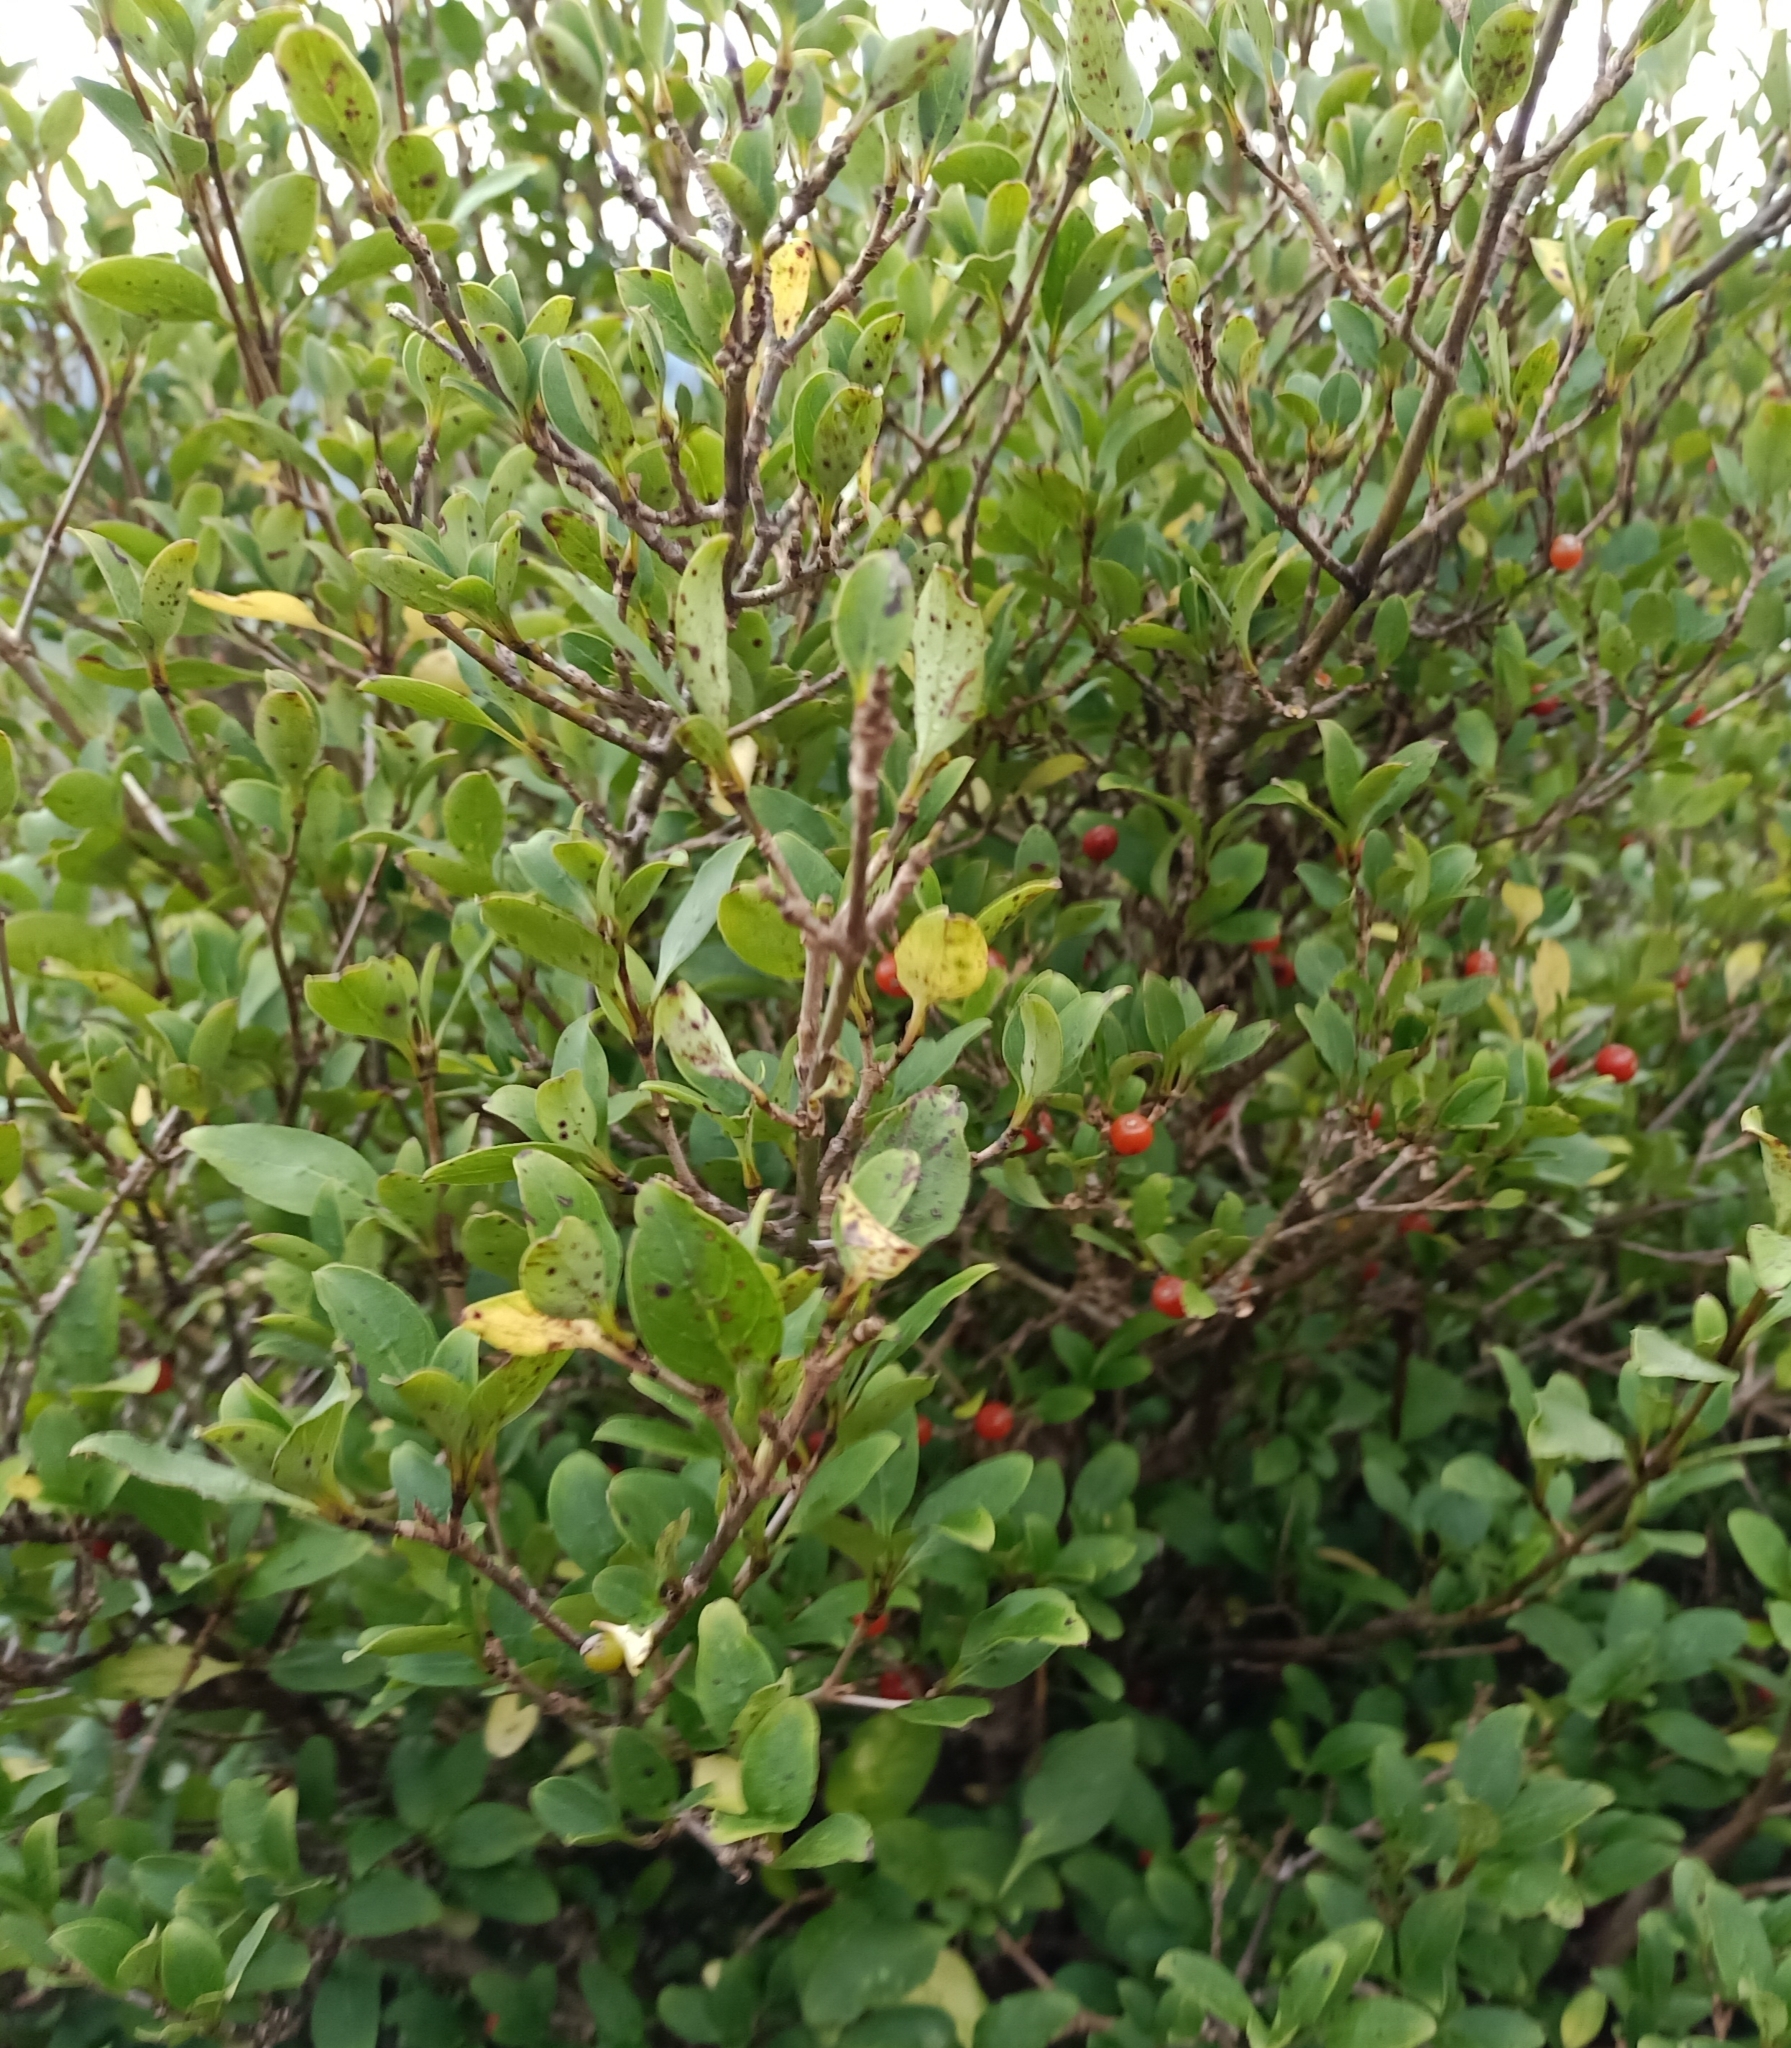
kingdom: Plantae
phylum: Tracheophyta
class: Magnoliopsida
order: Gentianales
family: Rubiaceae
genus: Coprosma
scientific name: Coprosma foetidissima
